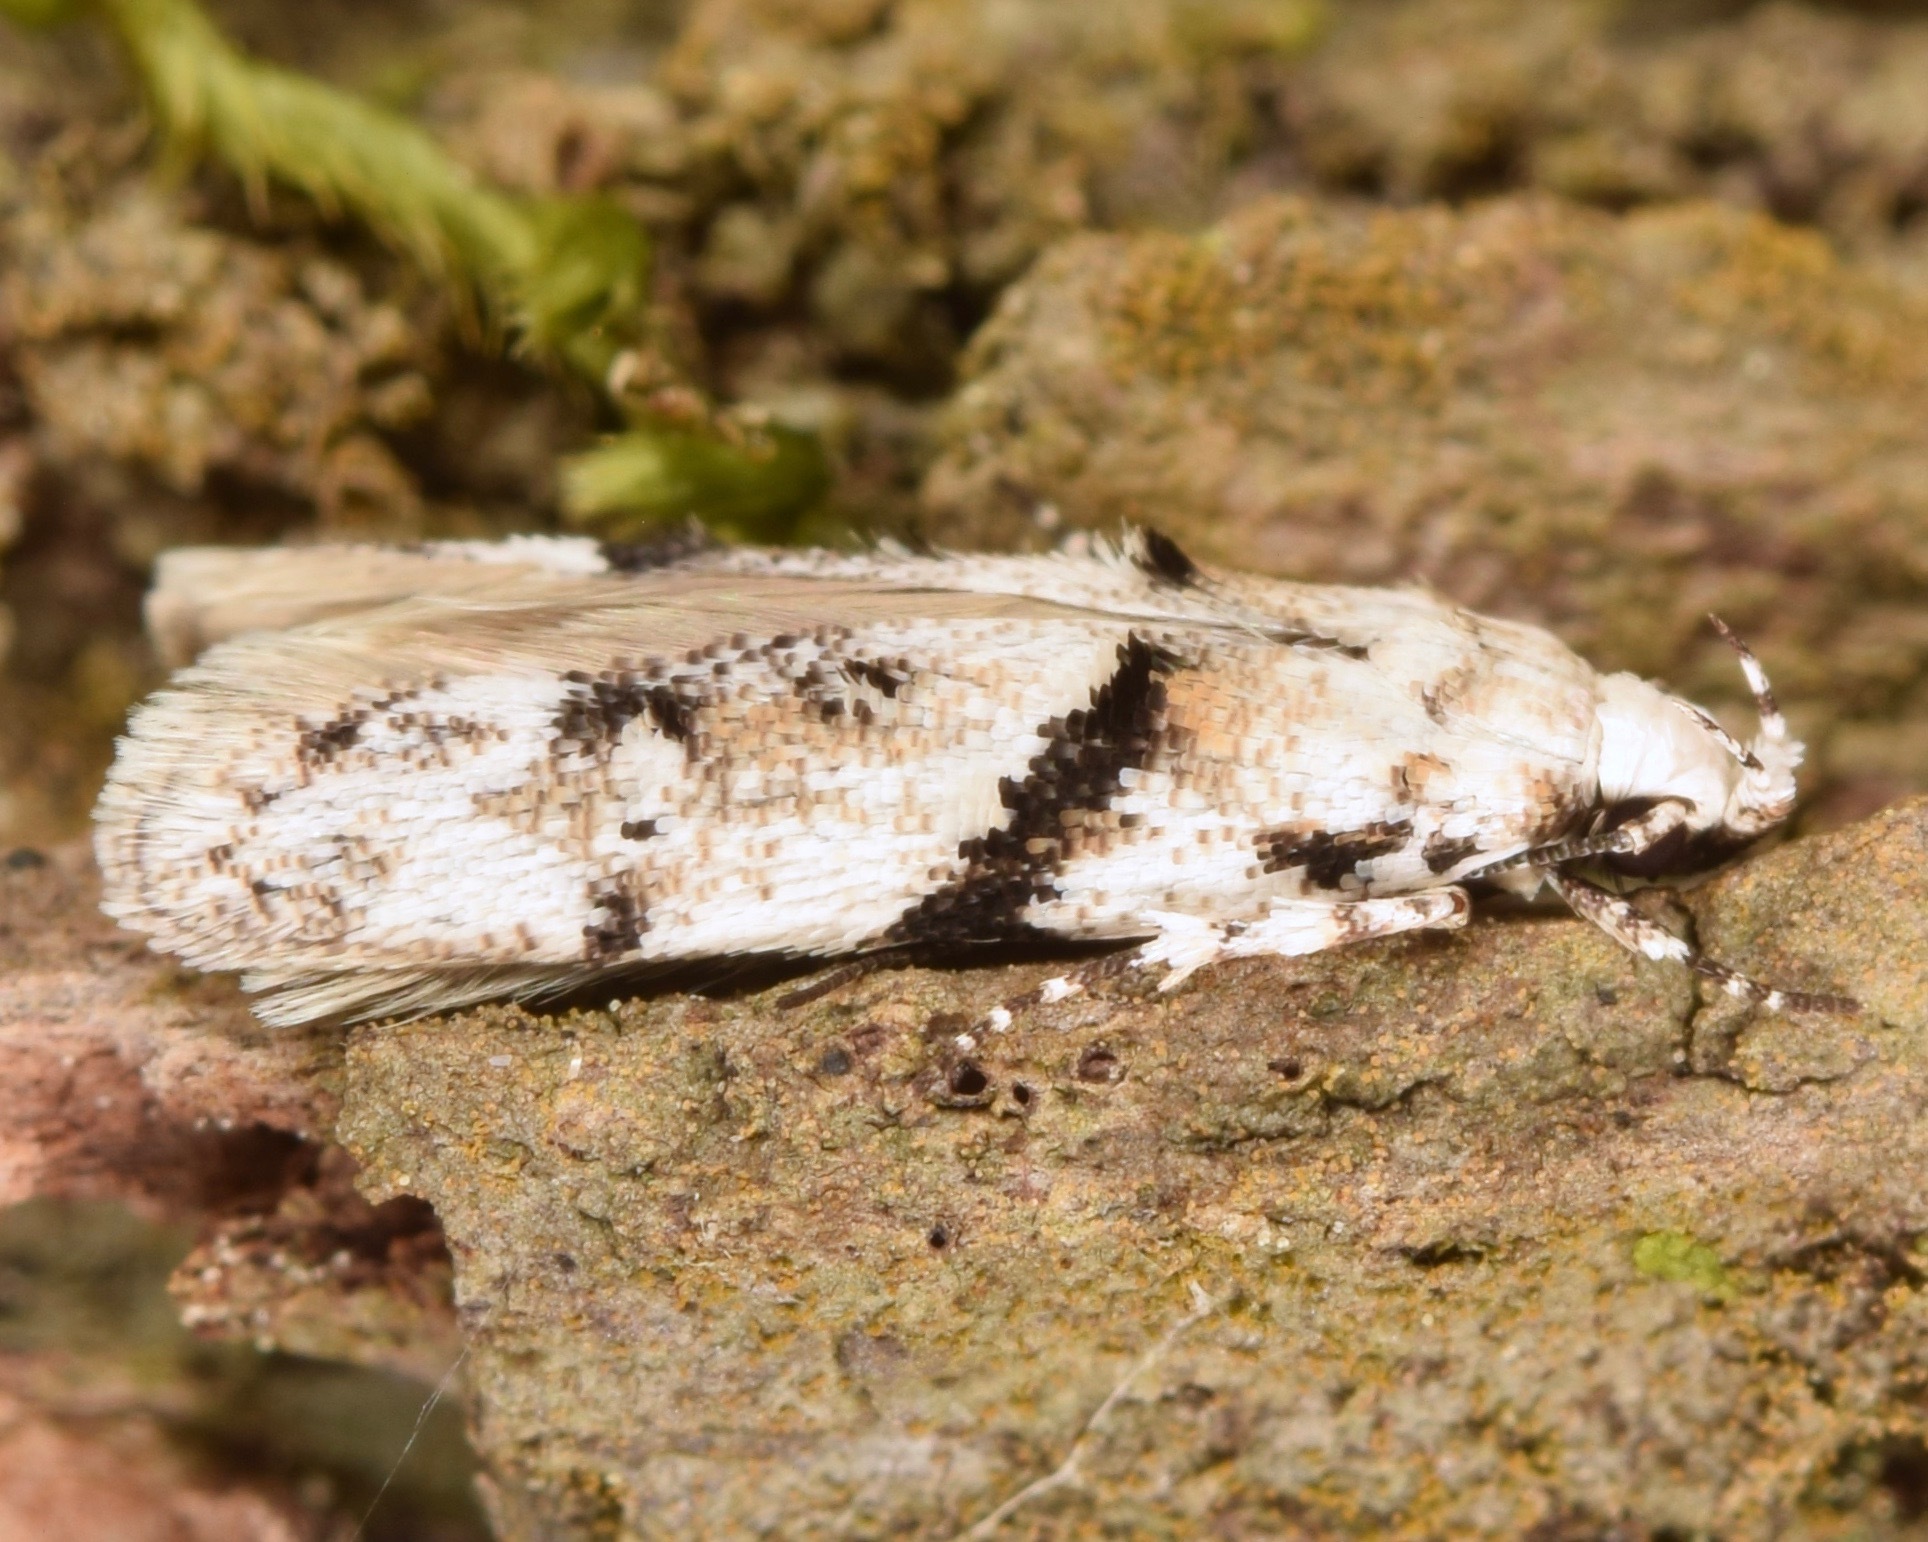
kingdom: Animalia
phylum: Arthropoda
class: Insecta
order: Lepidoptera
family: Gelechiidae
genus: Arogalea
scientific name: Arogalea cristifasciella
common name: White stripe-backed moth
